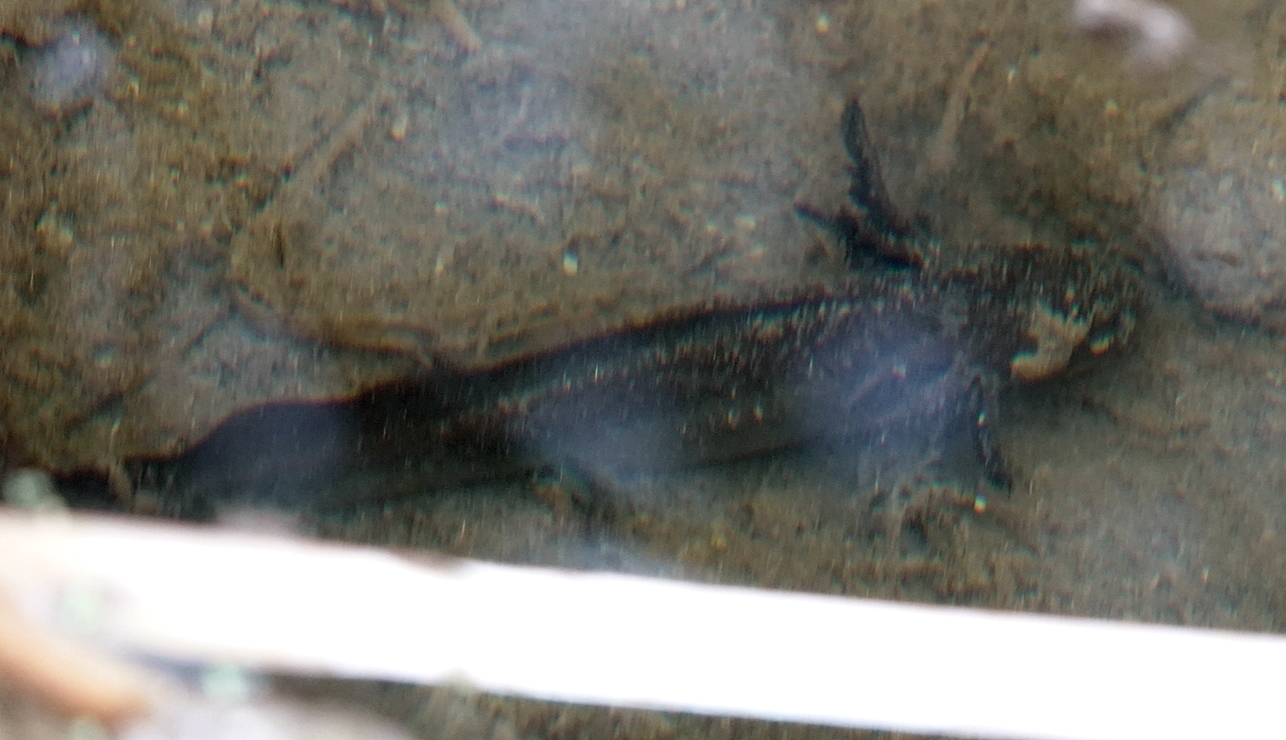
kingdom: Animalia
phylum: Chordata
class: Amphibia
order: Caudata
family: Ambystomatidae
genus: Ambystoma
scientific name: Ambystoma mavortium
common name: Western tiger salamander
